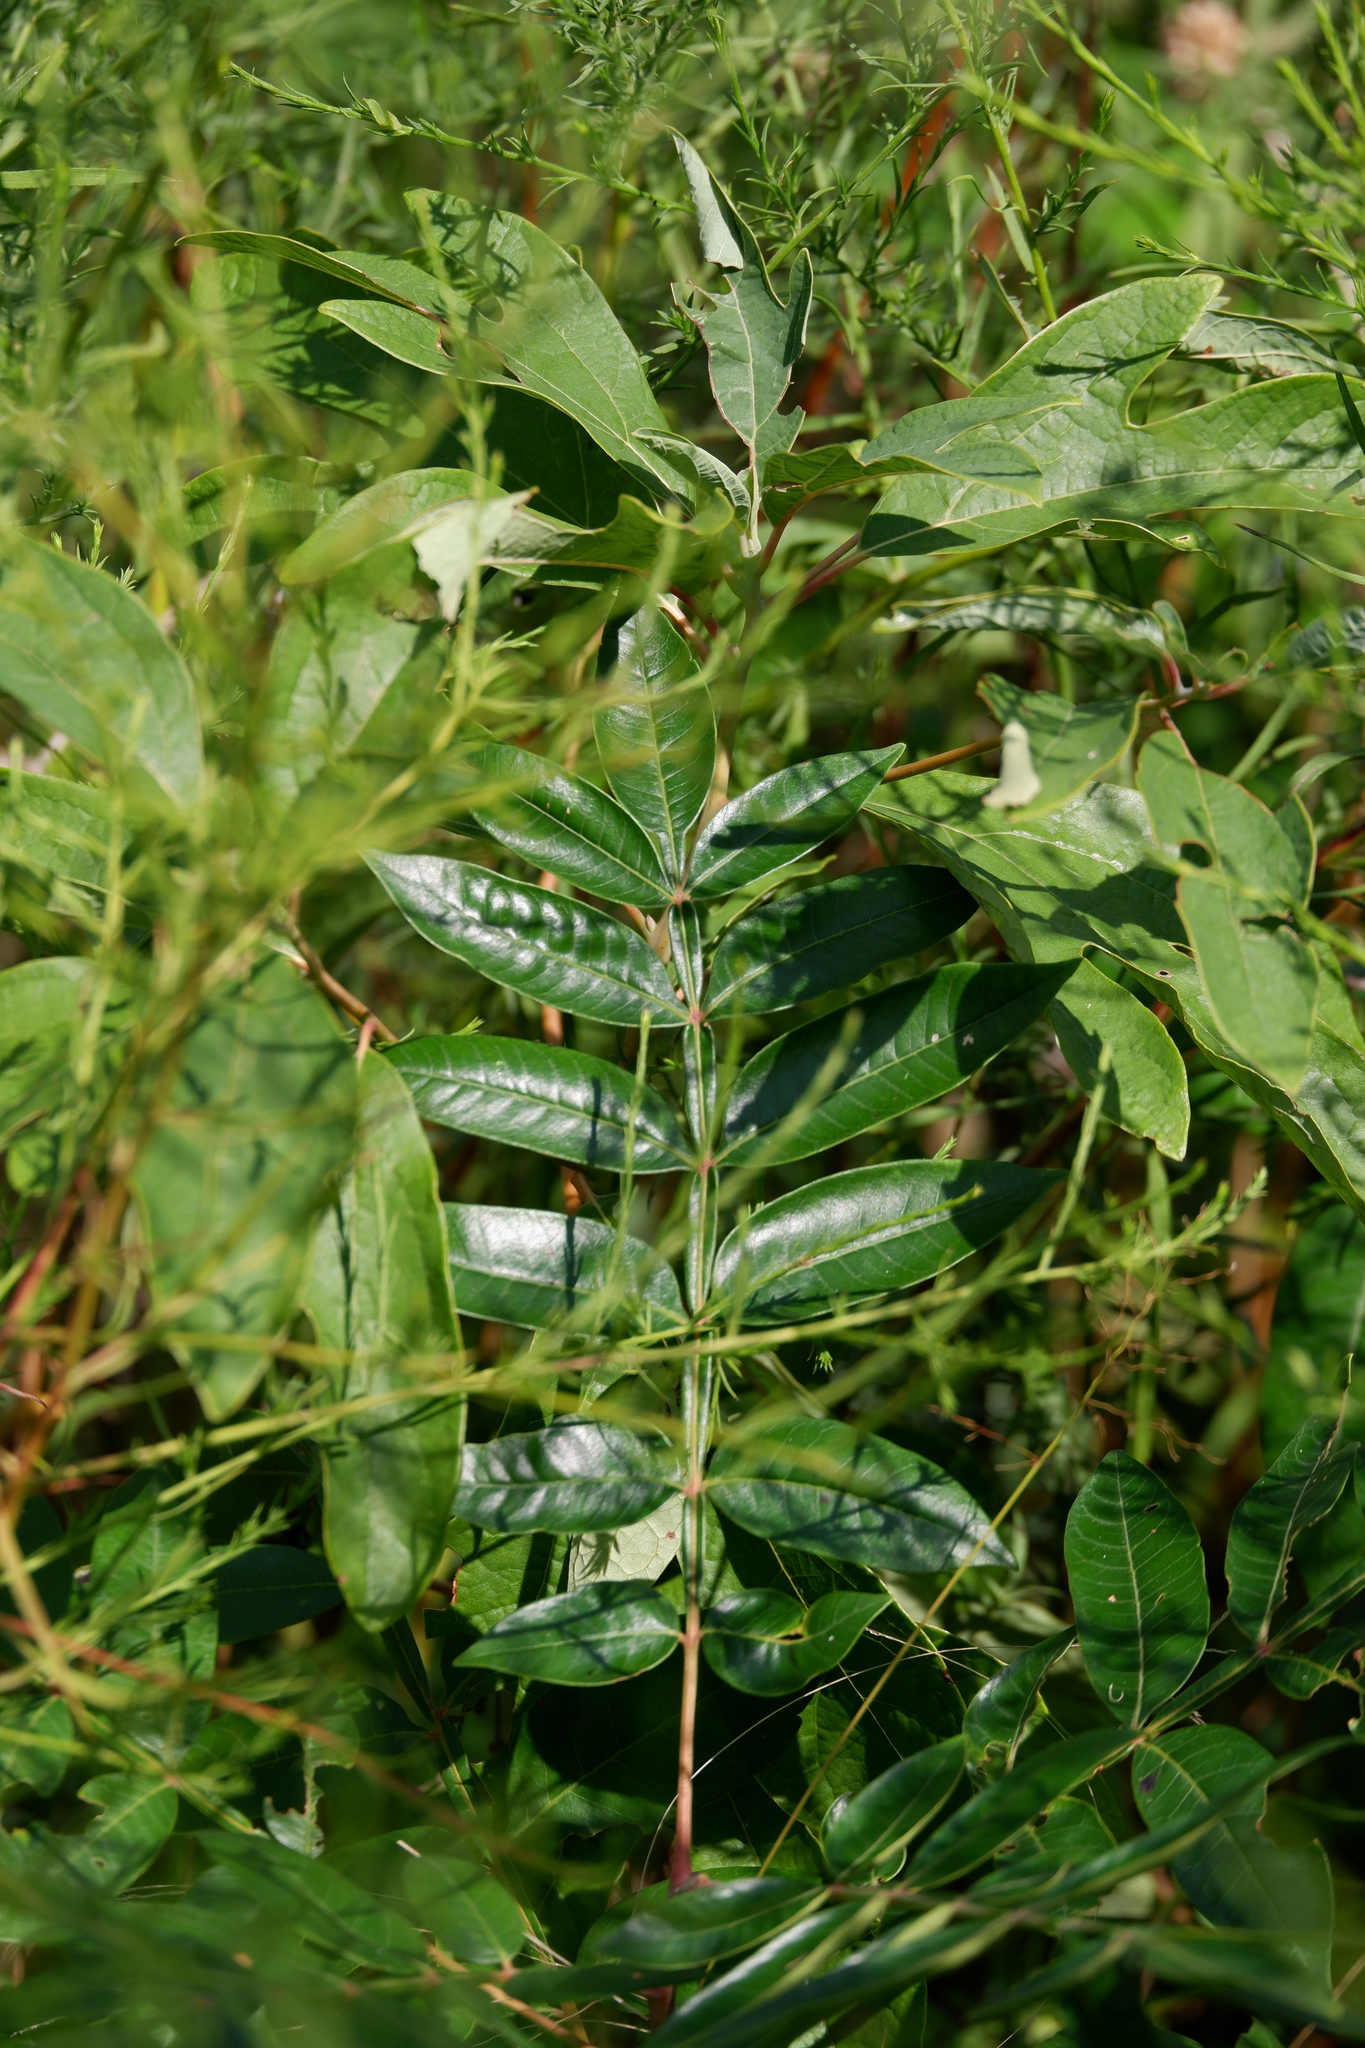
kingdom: Plantae
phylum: Tracheophyta
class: Magnoliopsida
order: Sapindales
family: Anacardiaceae
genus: Rhus
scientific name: Rhus copallina
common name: Shining sumac
